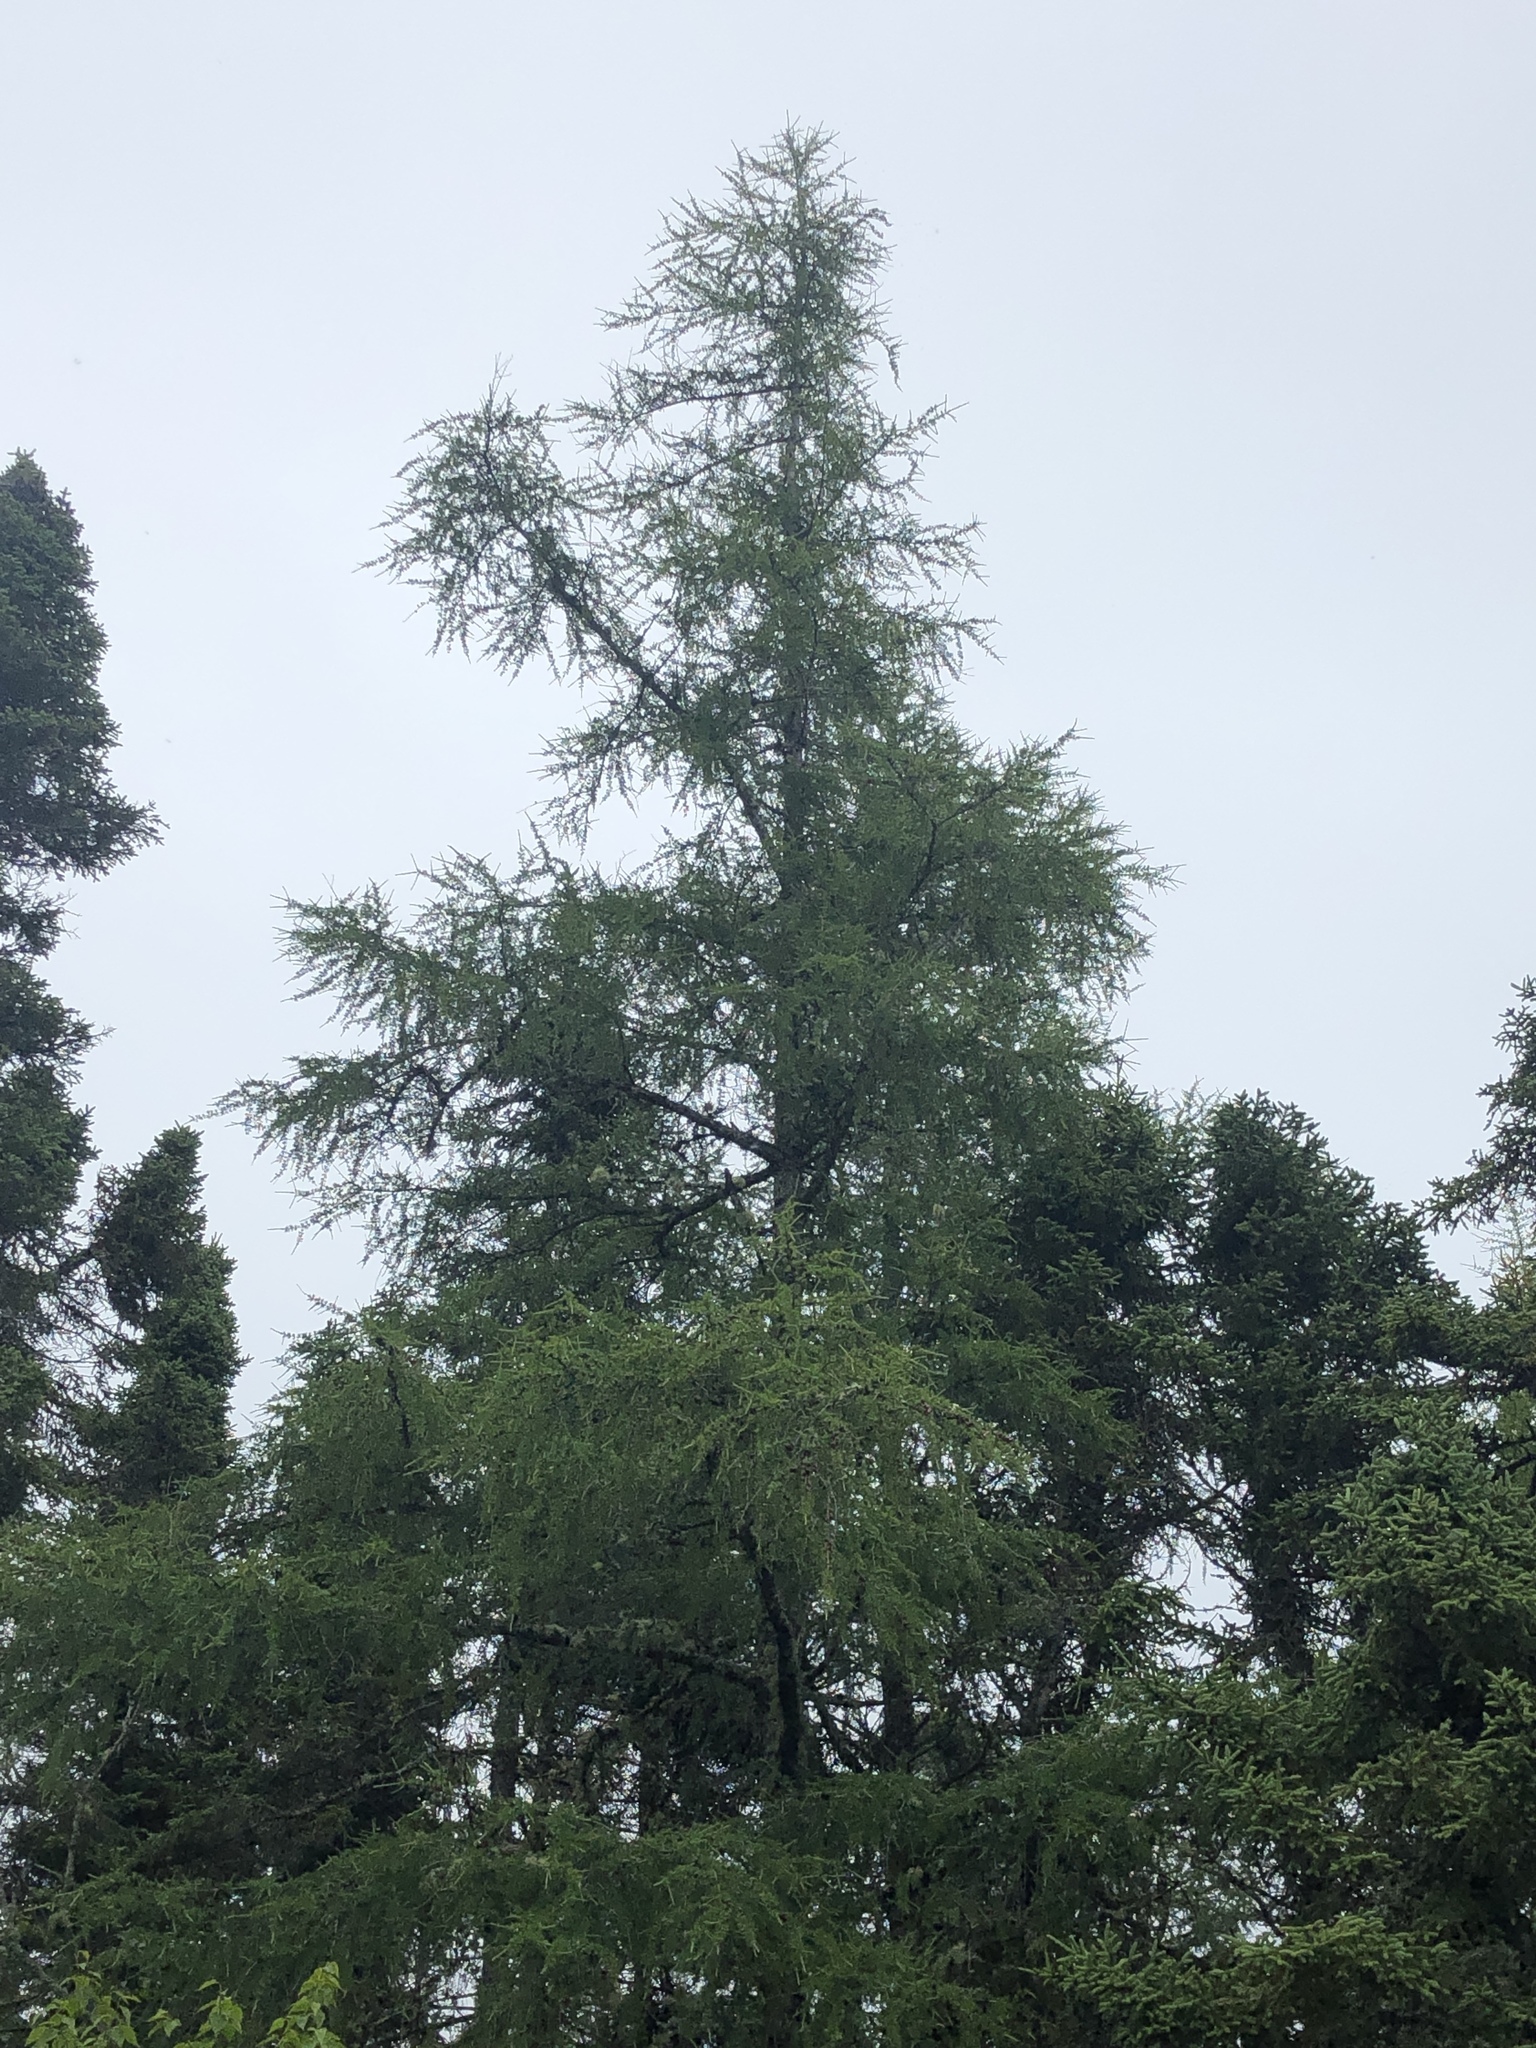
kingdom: Plantae
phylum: Tracheophyta
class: Pinopsida
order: Pinales
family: Pinaceae
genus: Larix
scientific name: Larix laricina
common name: American larch
